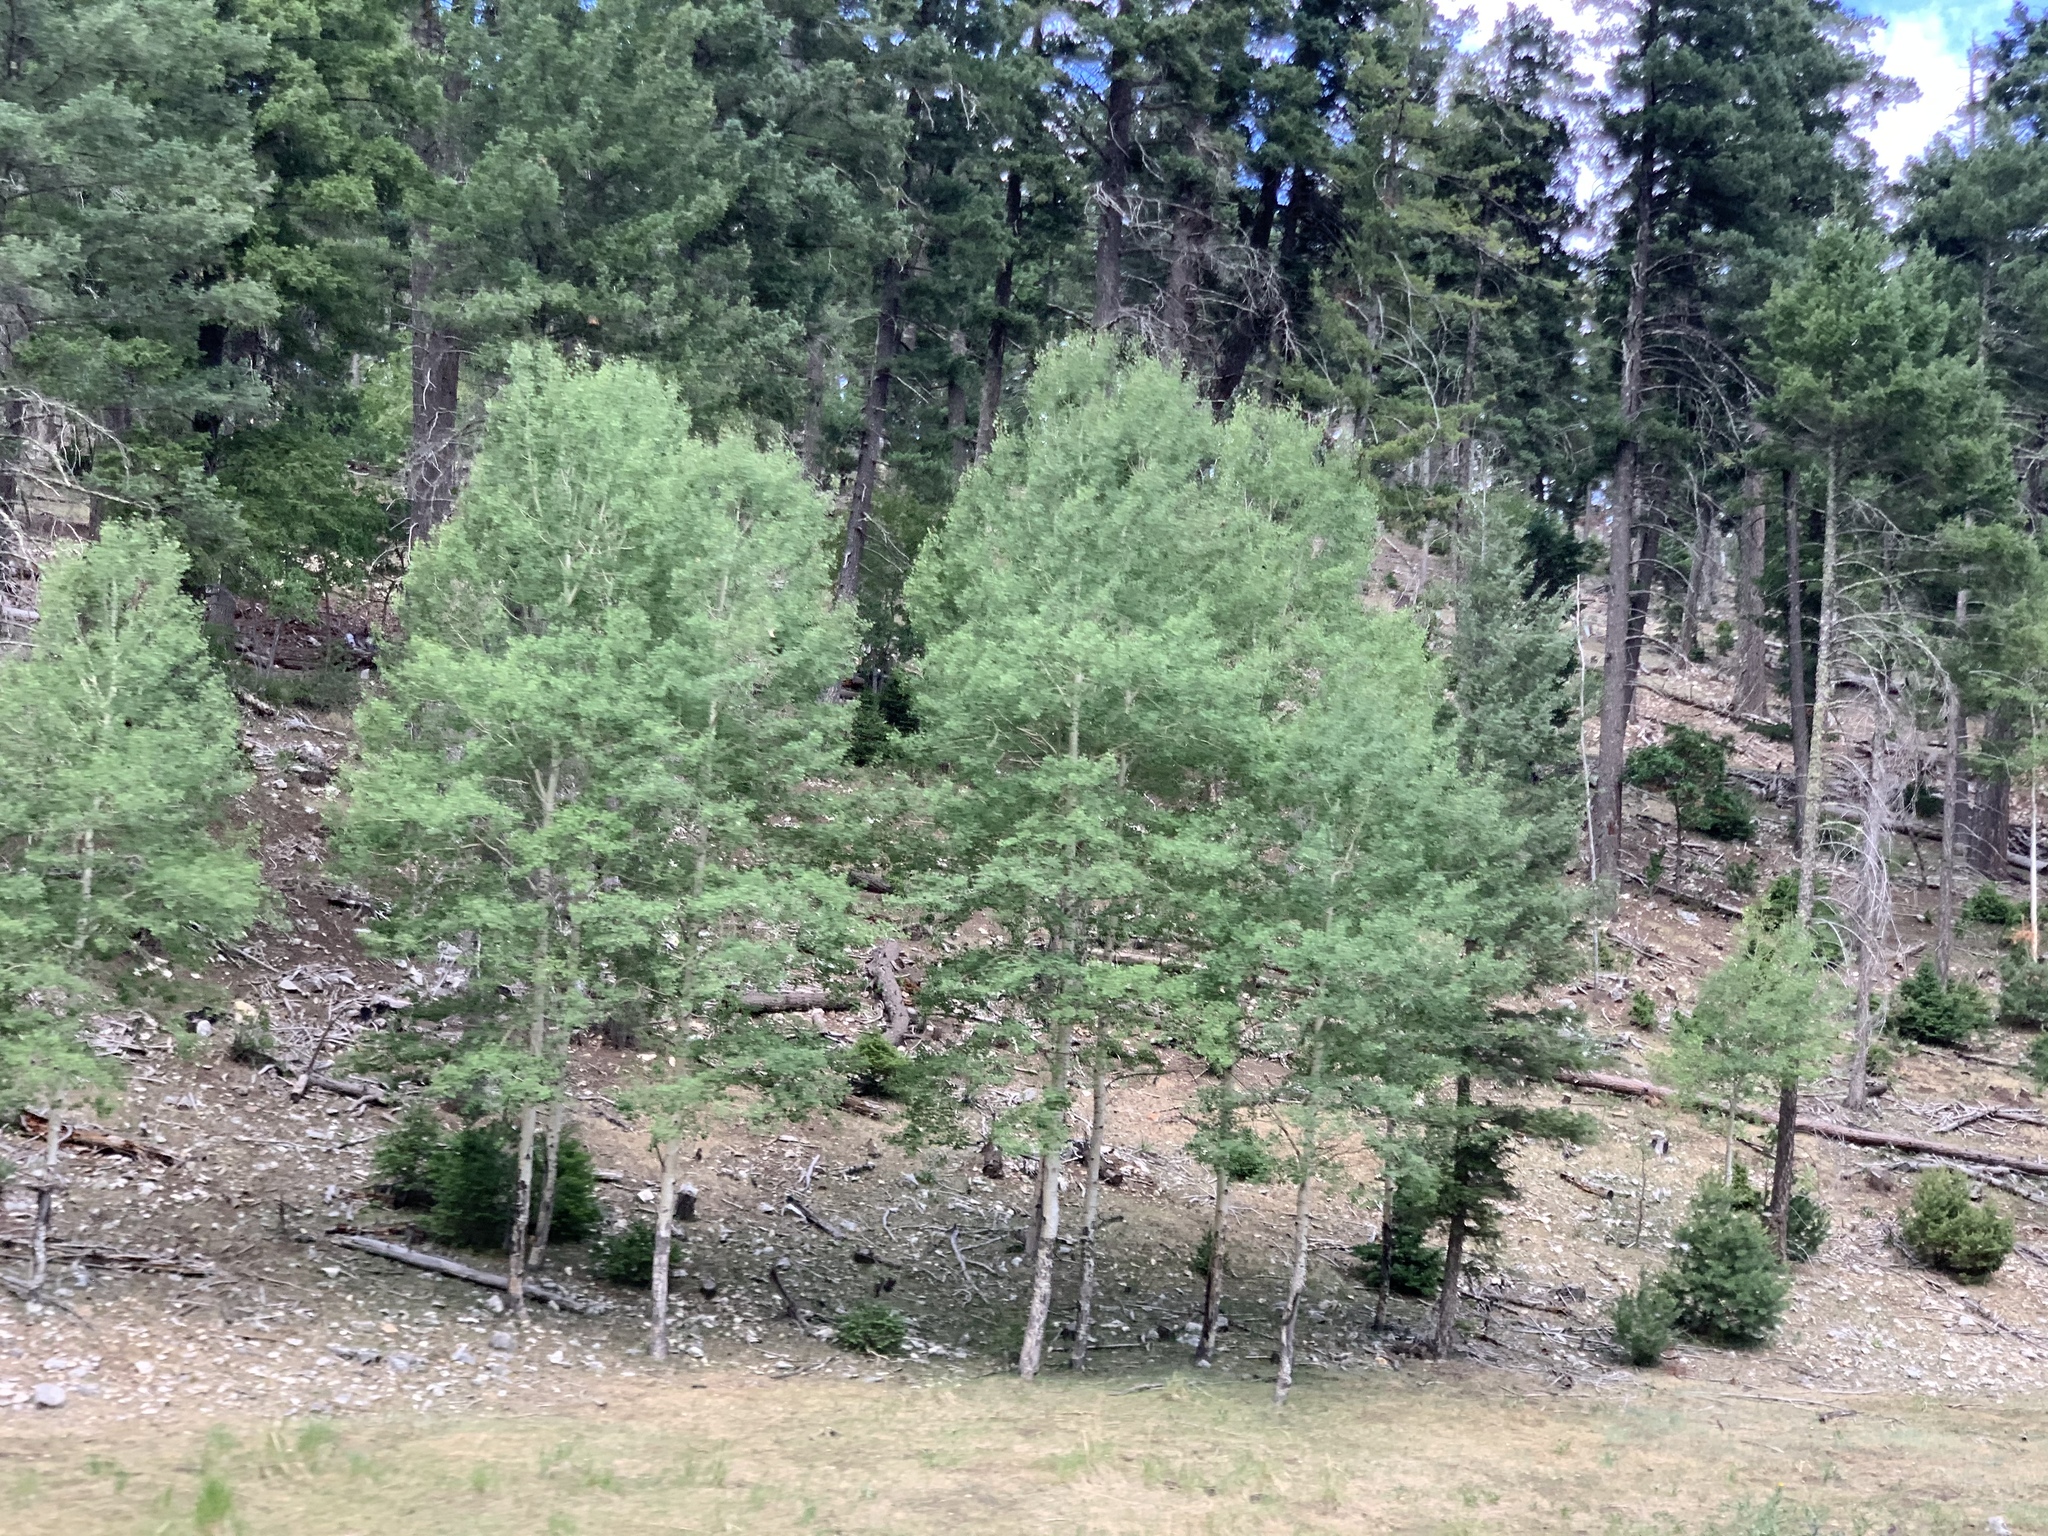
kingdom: Plantae
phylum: Tracheophyta
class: Magnoliopsida
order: Malpighiales
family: Salicaceae
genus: Populus
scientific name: Populus tremuloides
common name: Quaking aspen
